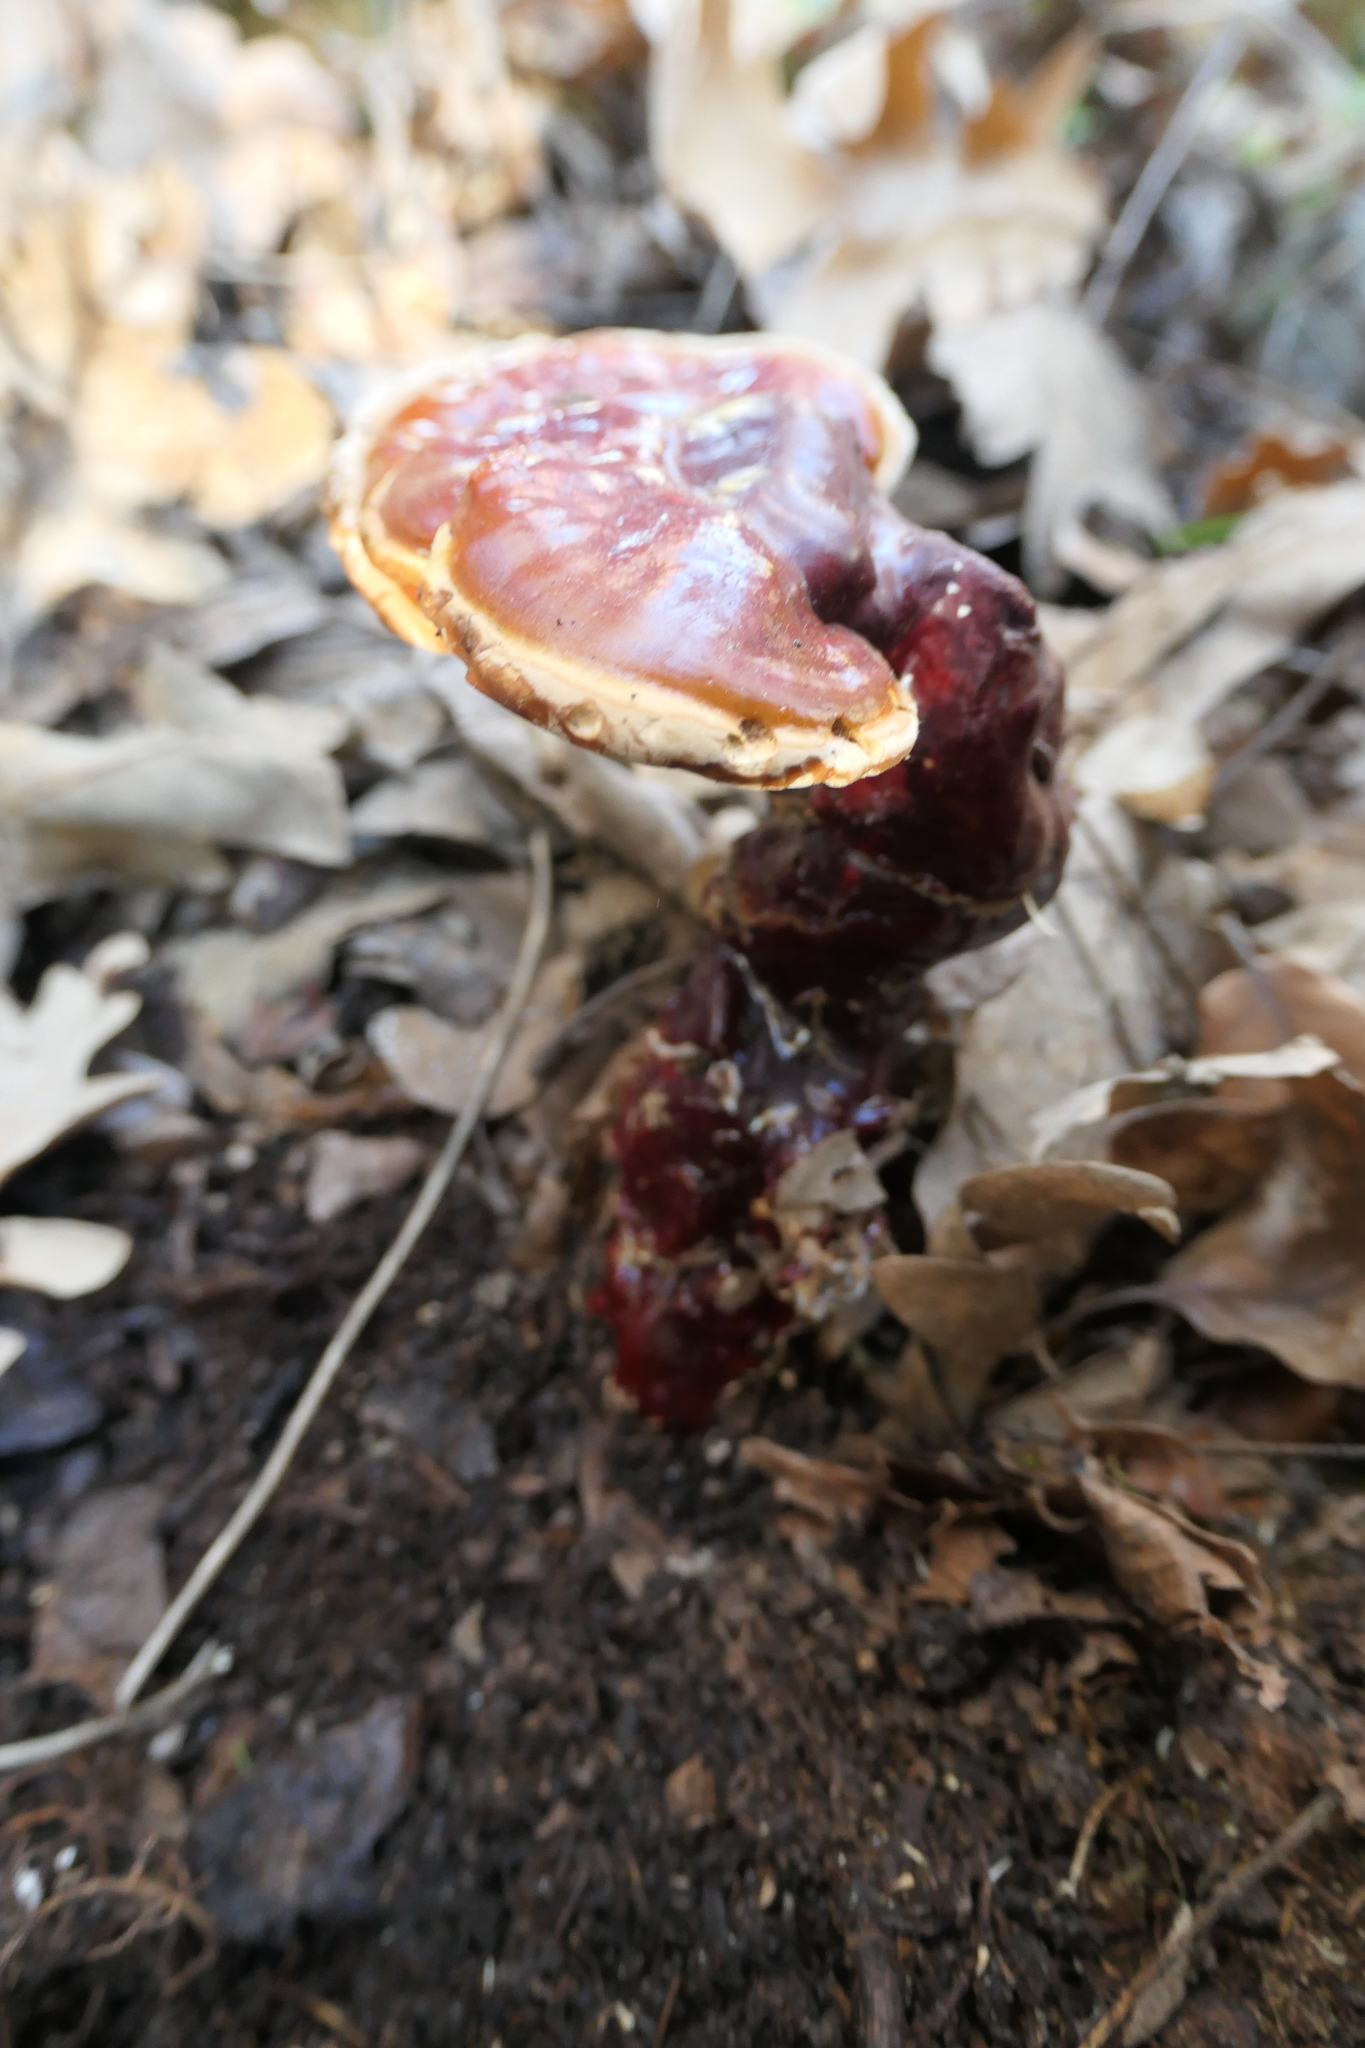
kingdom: Fungi
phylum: Basidiomycota
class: Agaricomycetes
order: Polyporales
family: Polyporaceae
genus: Ganoderma
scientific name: Ganoderma lucidum
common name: Lacquered bracket
